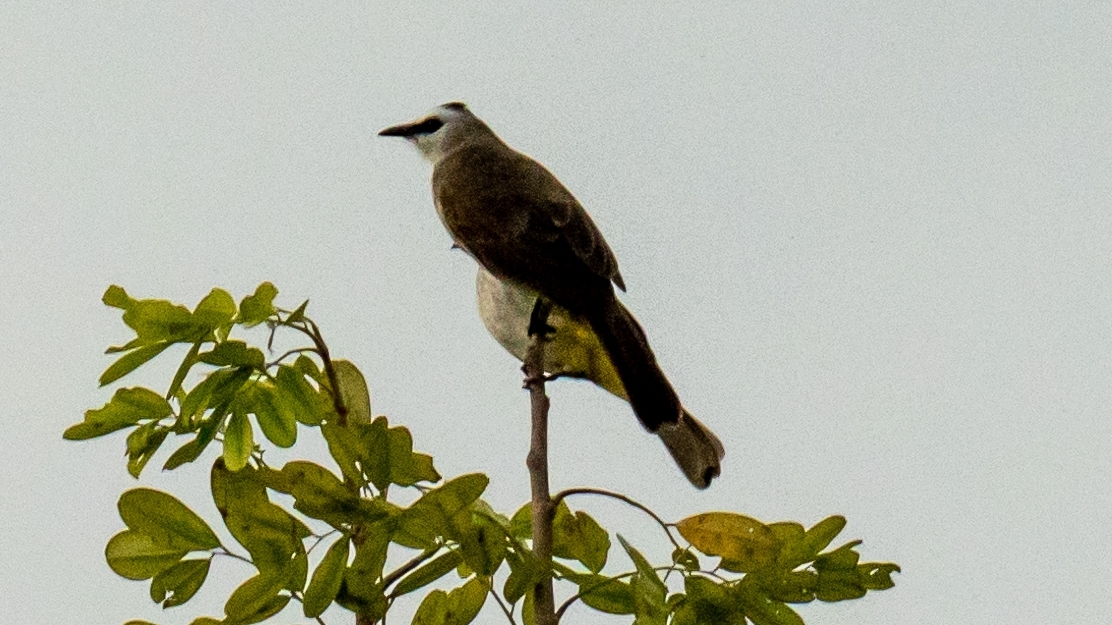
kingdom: Animalia
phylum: Chordata
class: Aves
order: Passeriformes
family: Pycnonotidae
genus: Pycnonotus
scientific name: Pycnonotus goiavier
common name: Yellow-vented bulbul
